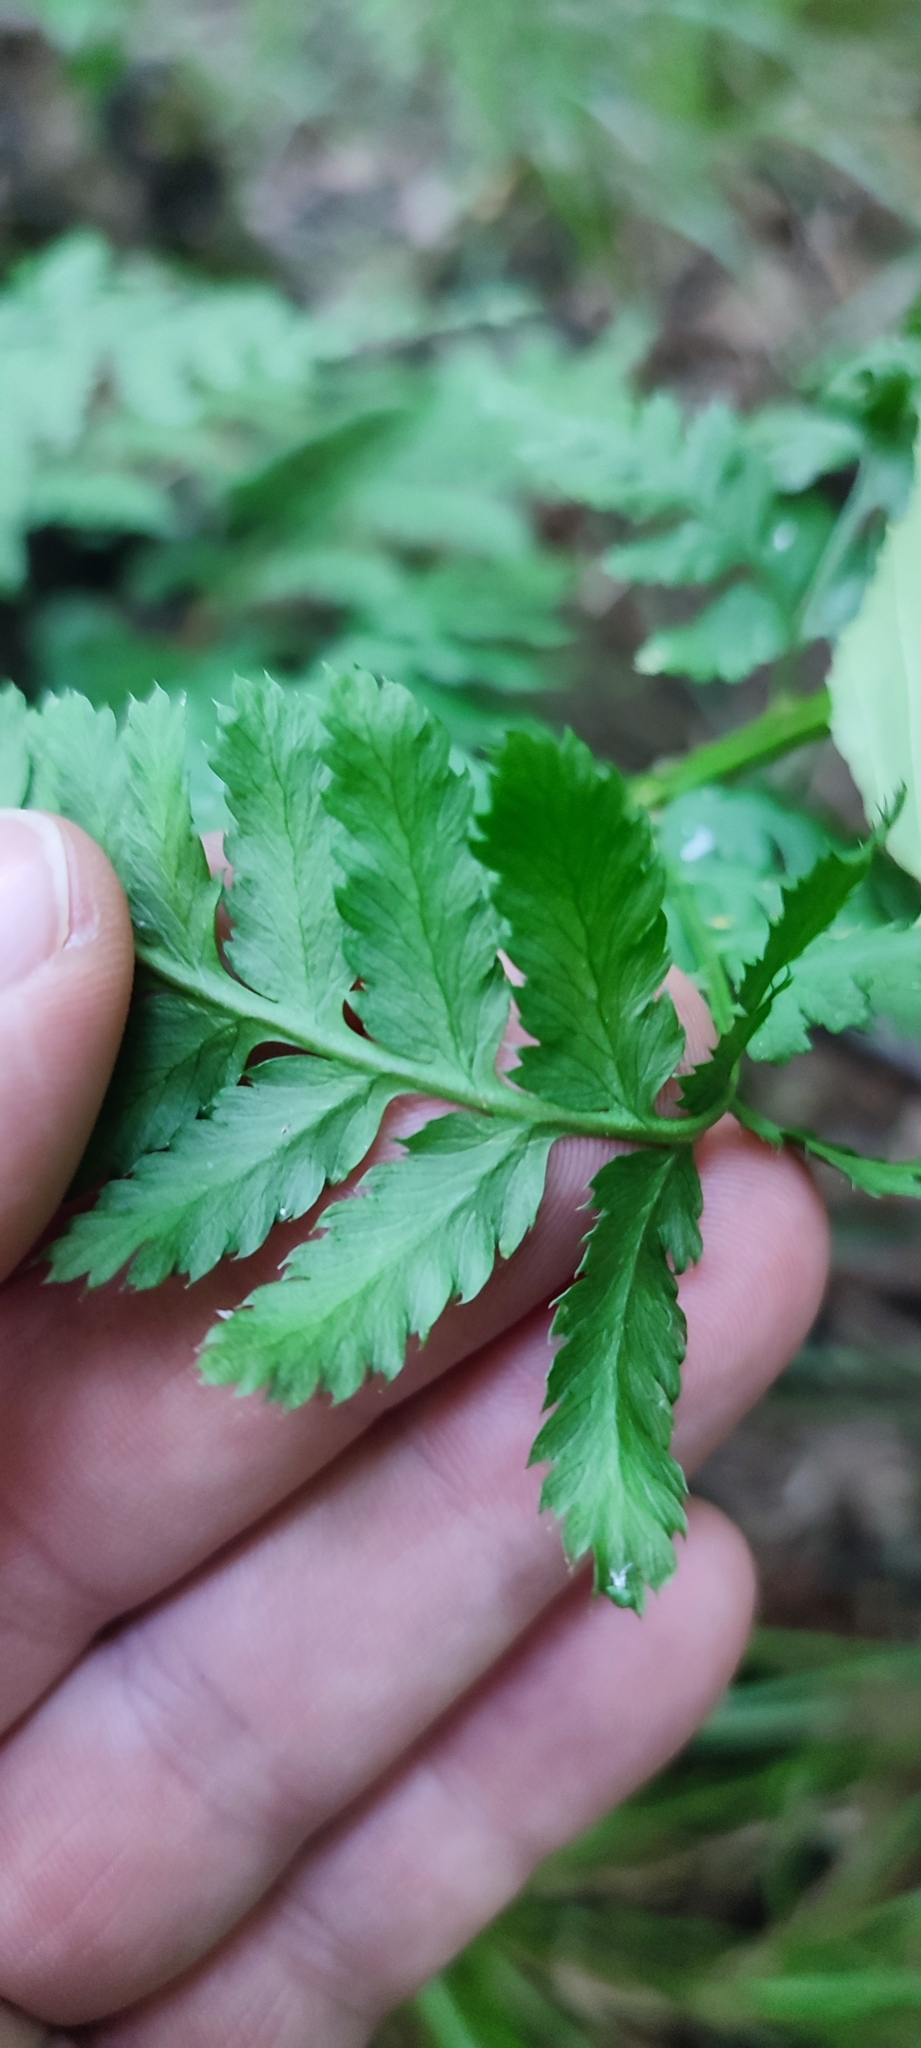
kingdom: Plantae
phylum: Tracheophyta
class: Polypodiopsida
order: Polypodiales
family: Dryopteridaceae
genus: Dryopteris
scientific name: Dryopteris carthusiana
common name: Narrow buckler-fern
